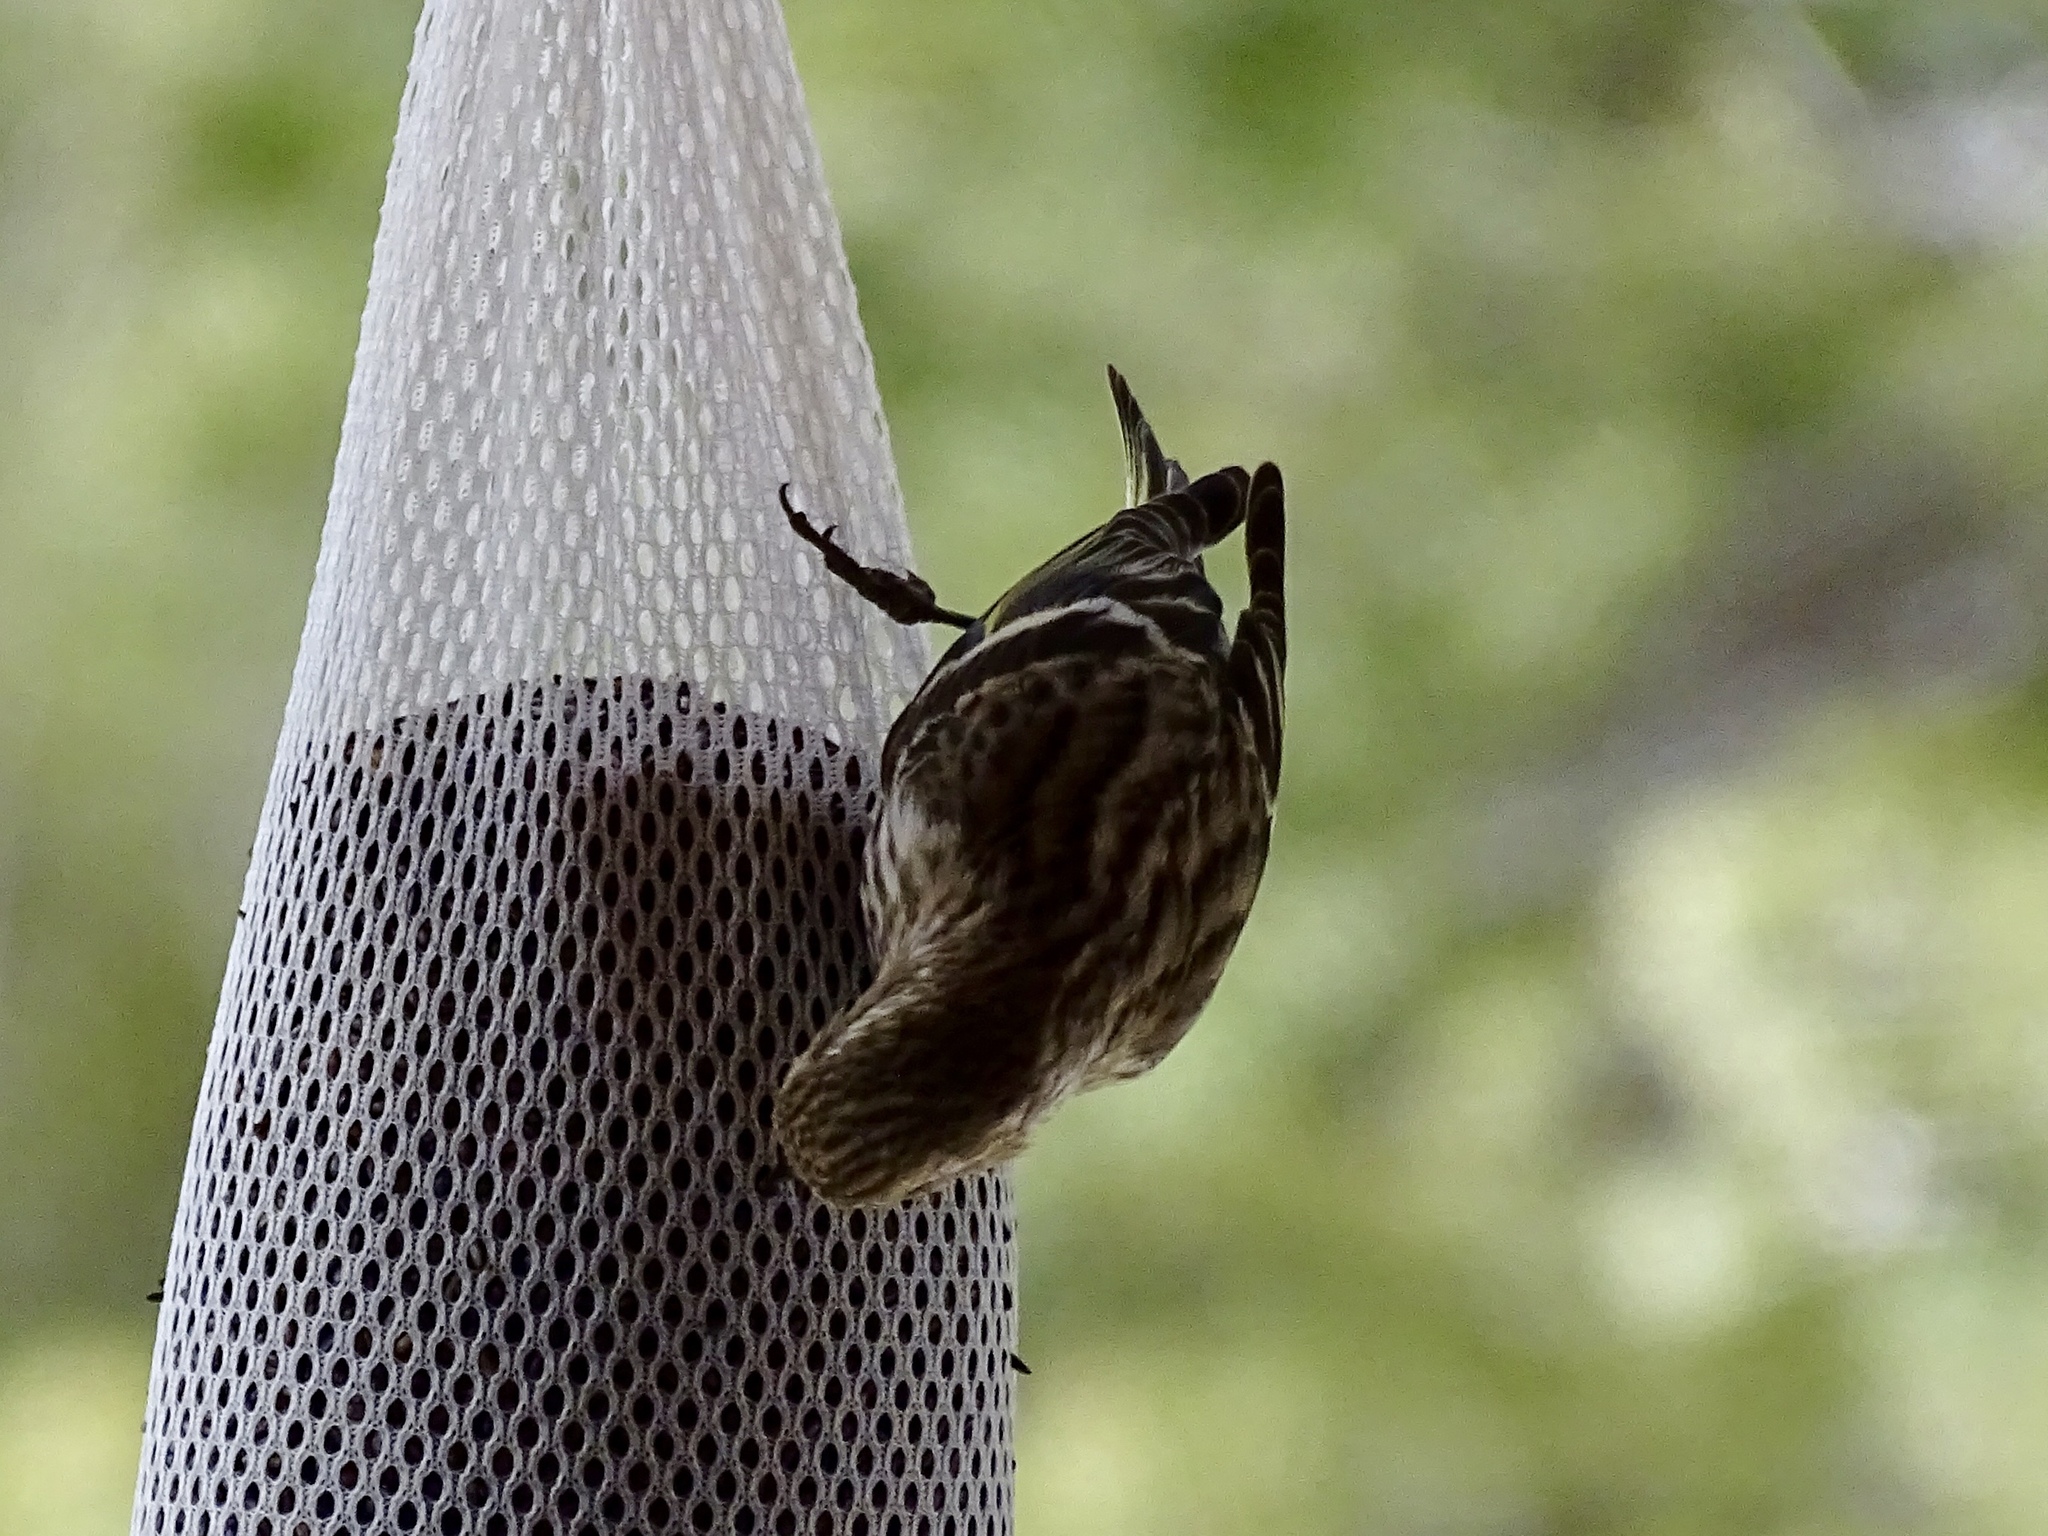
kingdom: Animalia
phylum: Chordata
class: Aves
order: Passeriformes
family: Fringillidae
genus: Spinus
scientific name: Spinus pinus
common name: Pine siskin
